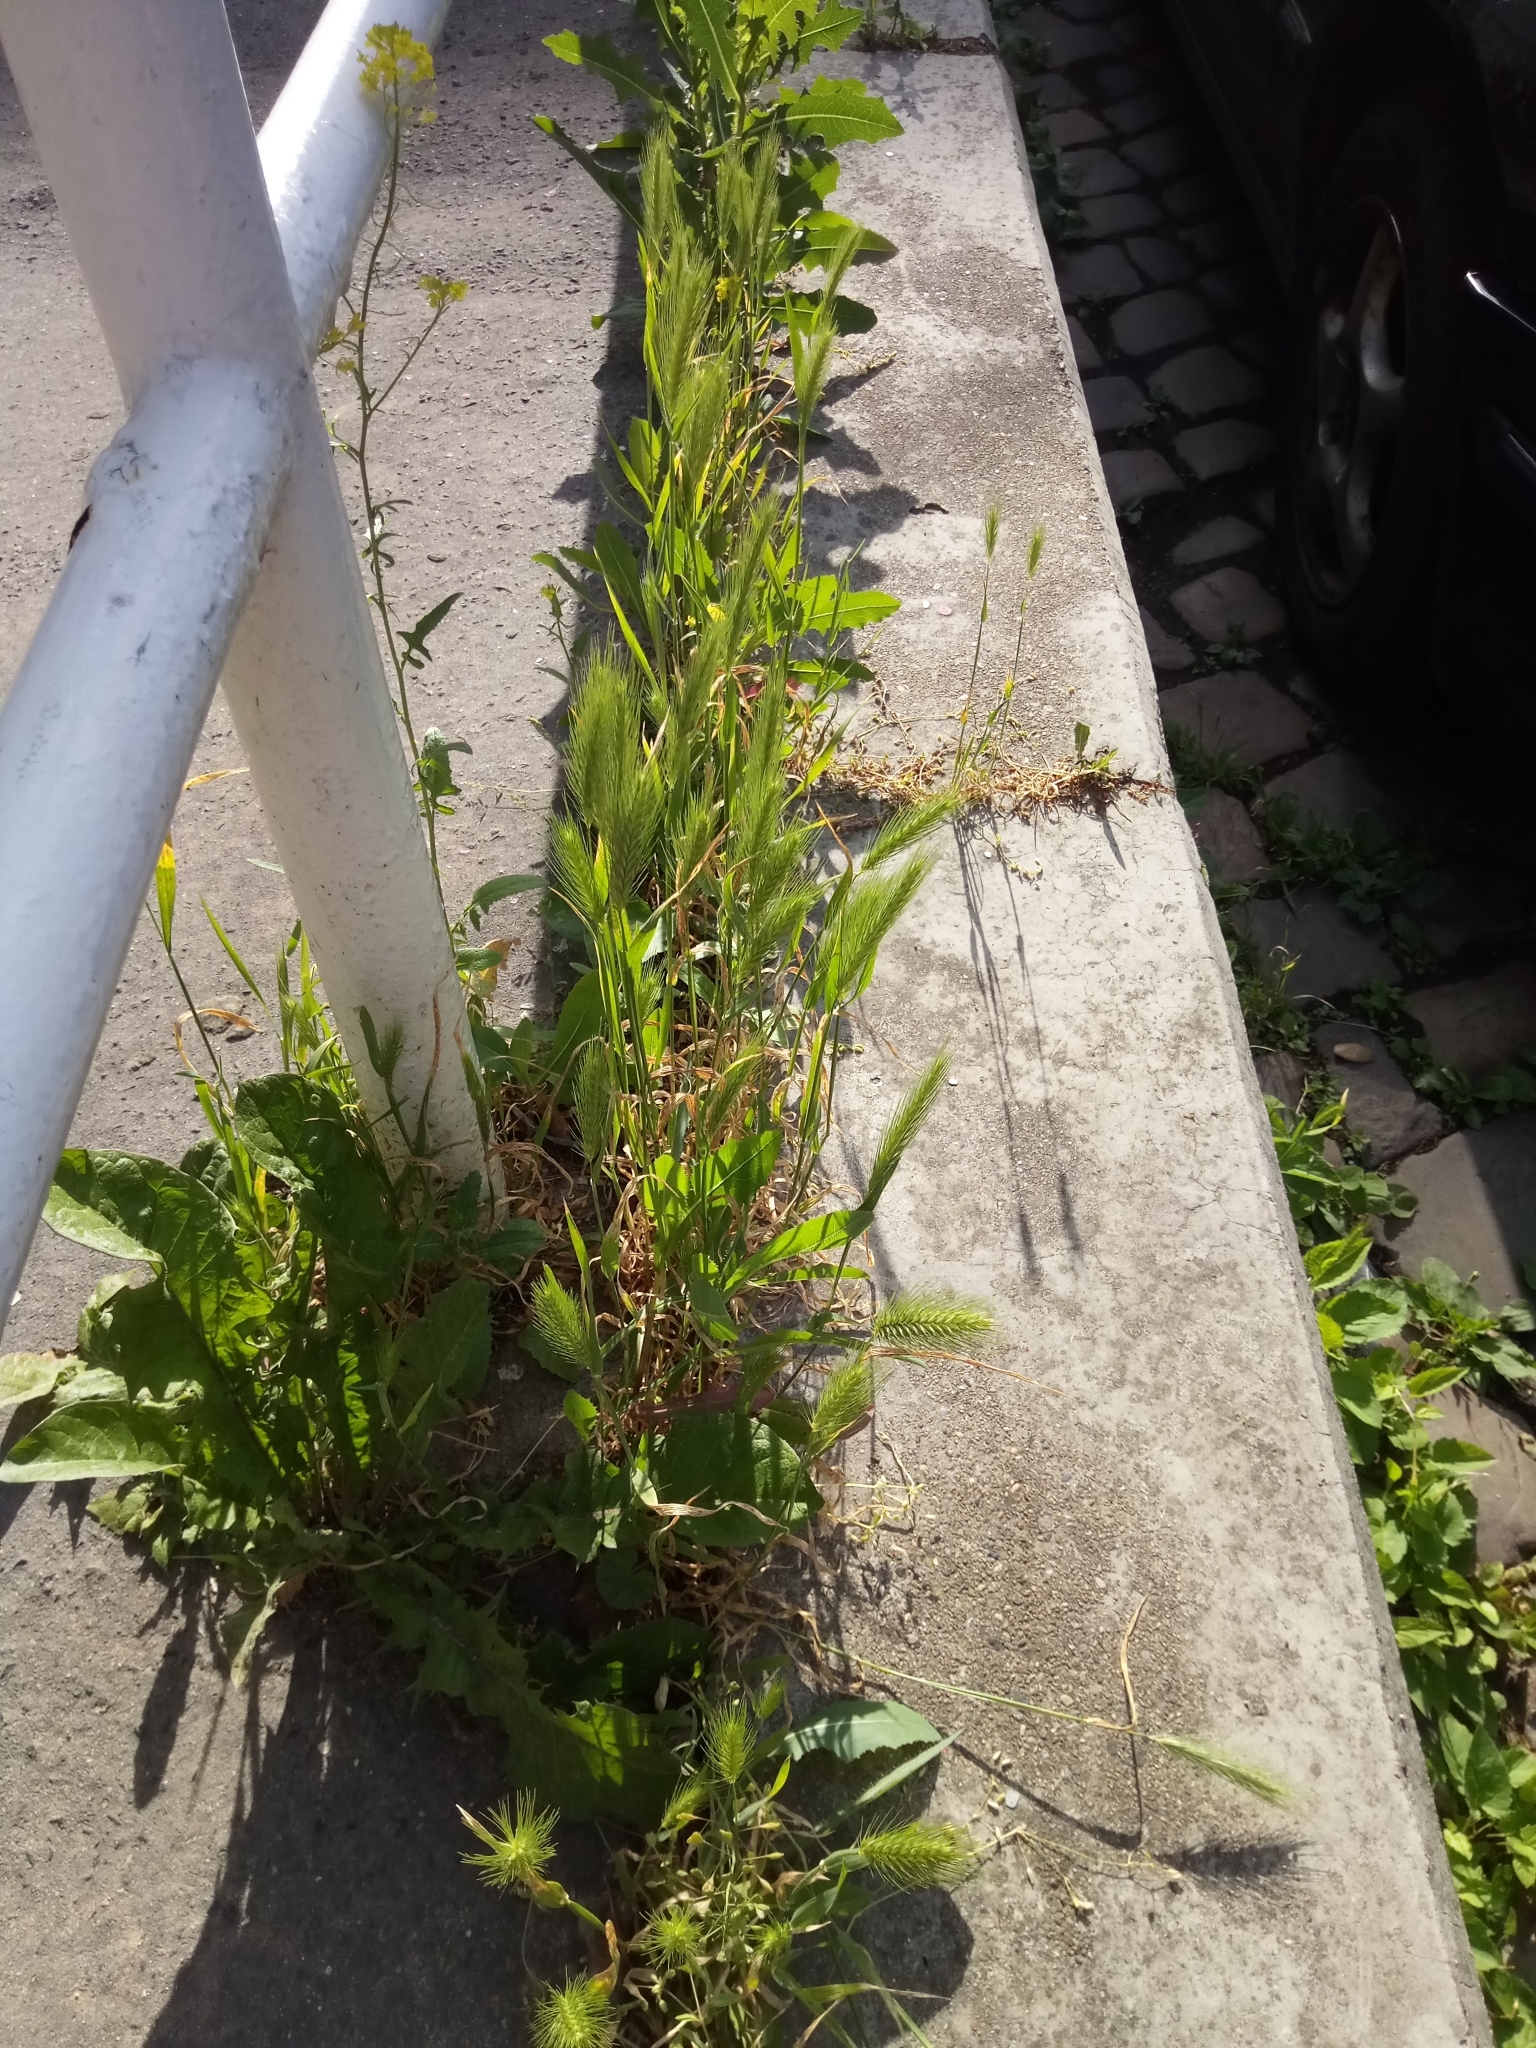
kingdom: Plantae
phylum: Tracheophyta
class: Liliopsida
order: Poales
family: Poaceae
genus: Hordeum
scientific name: Hordeum murinum
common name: Wall barley
